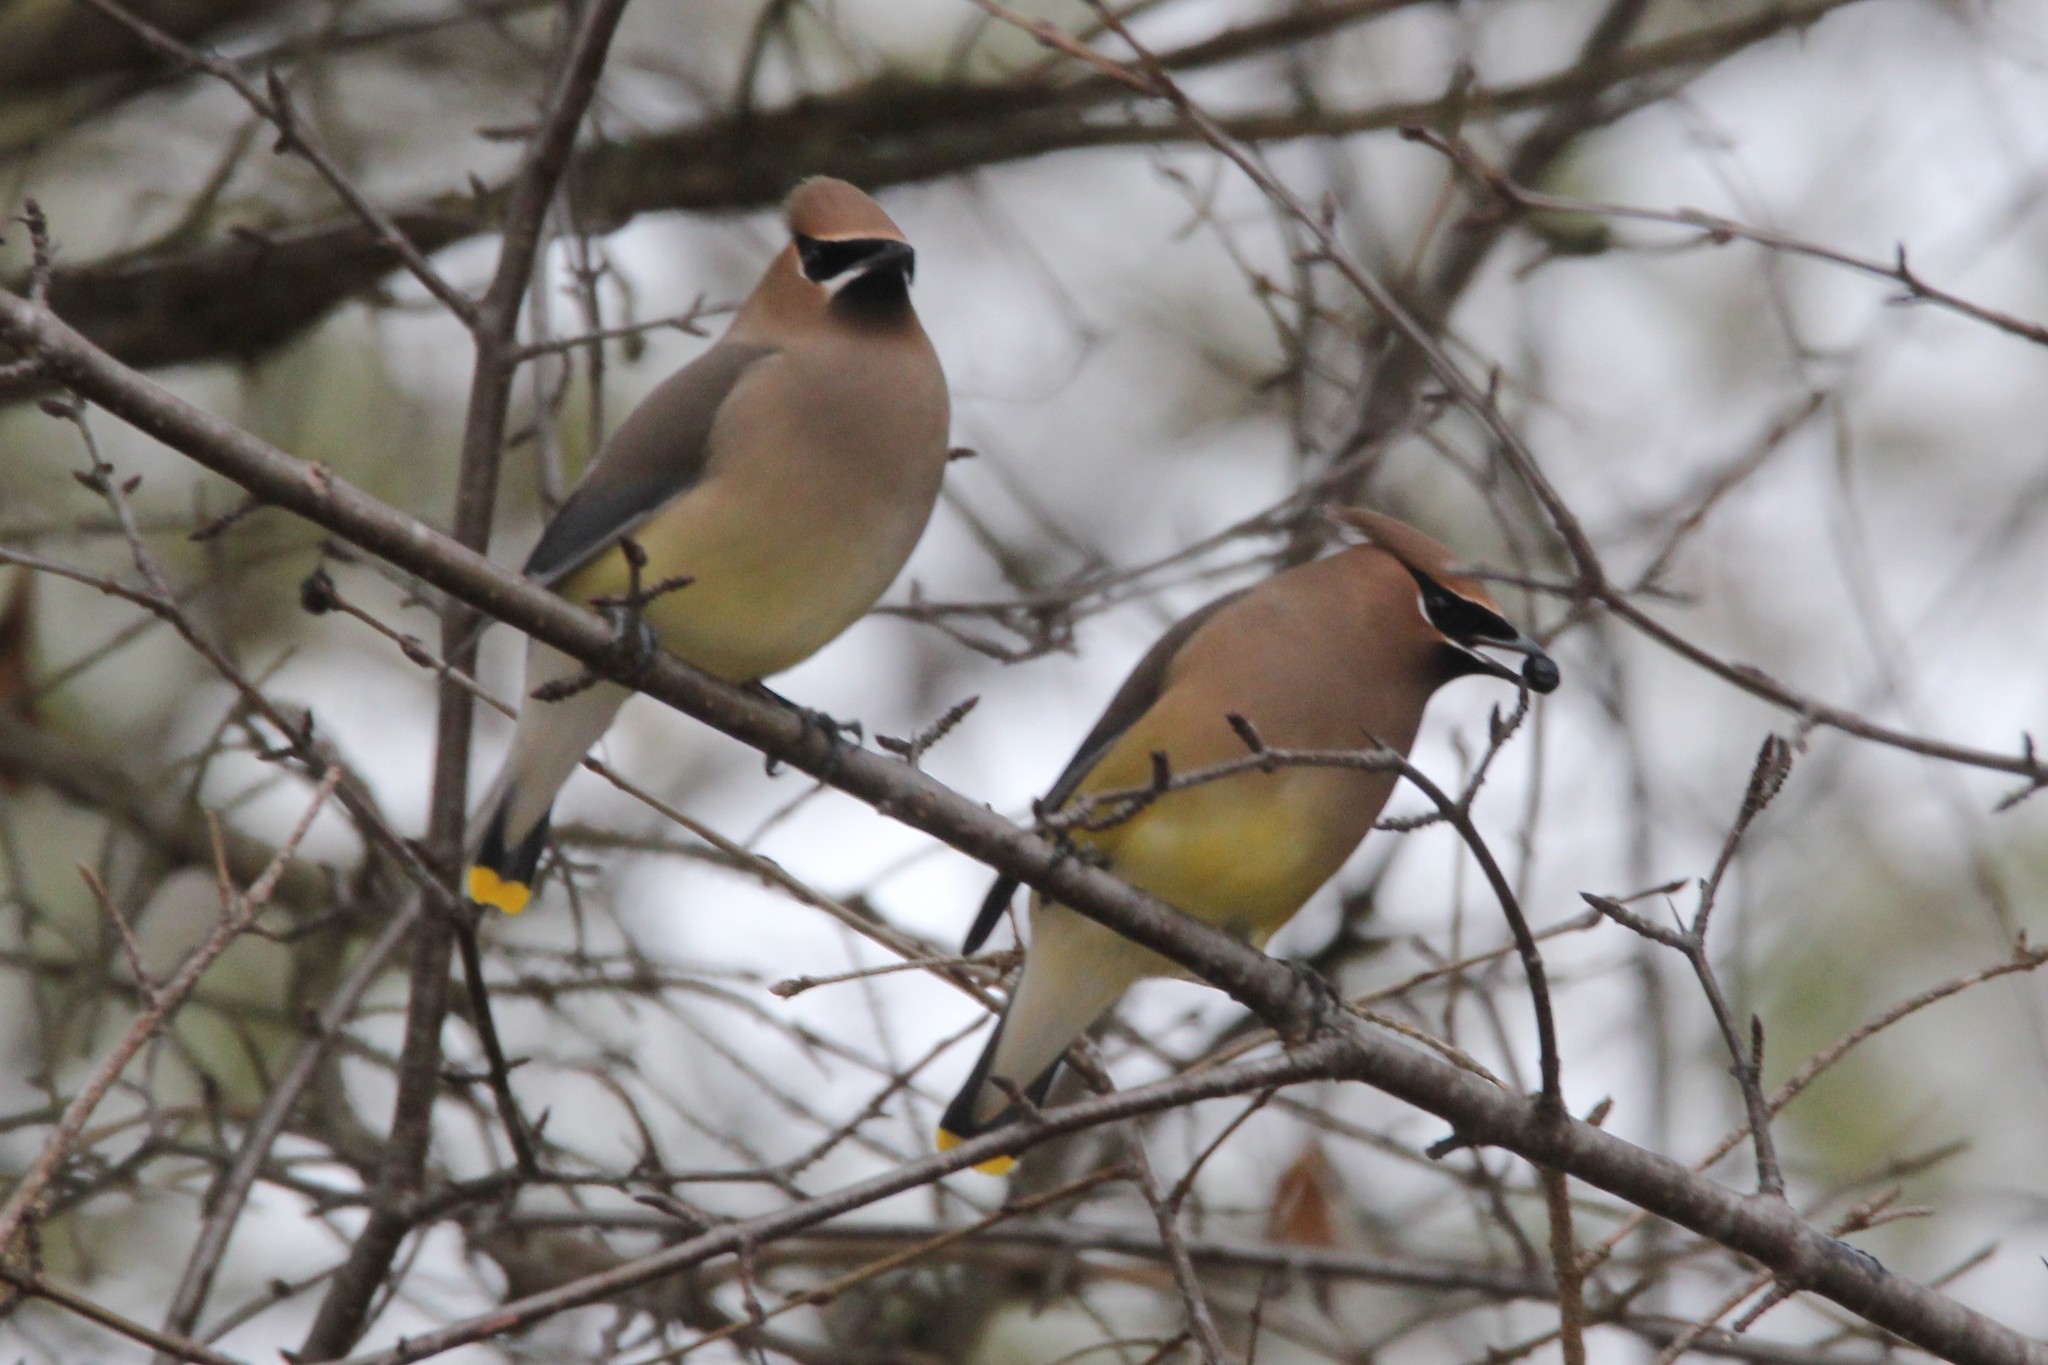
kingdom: Animalia
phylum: Chordata
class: Aves
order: Passeriformes
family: Bombycillidae
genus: Bombycilla
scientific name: Bombycilla cedrorum
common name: Cedar waxwing
